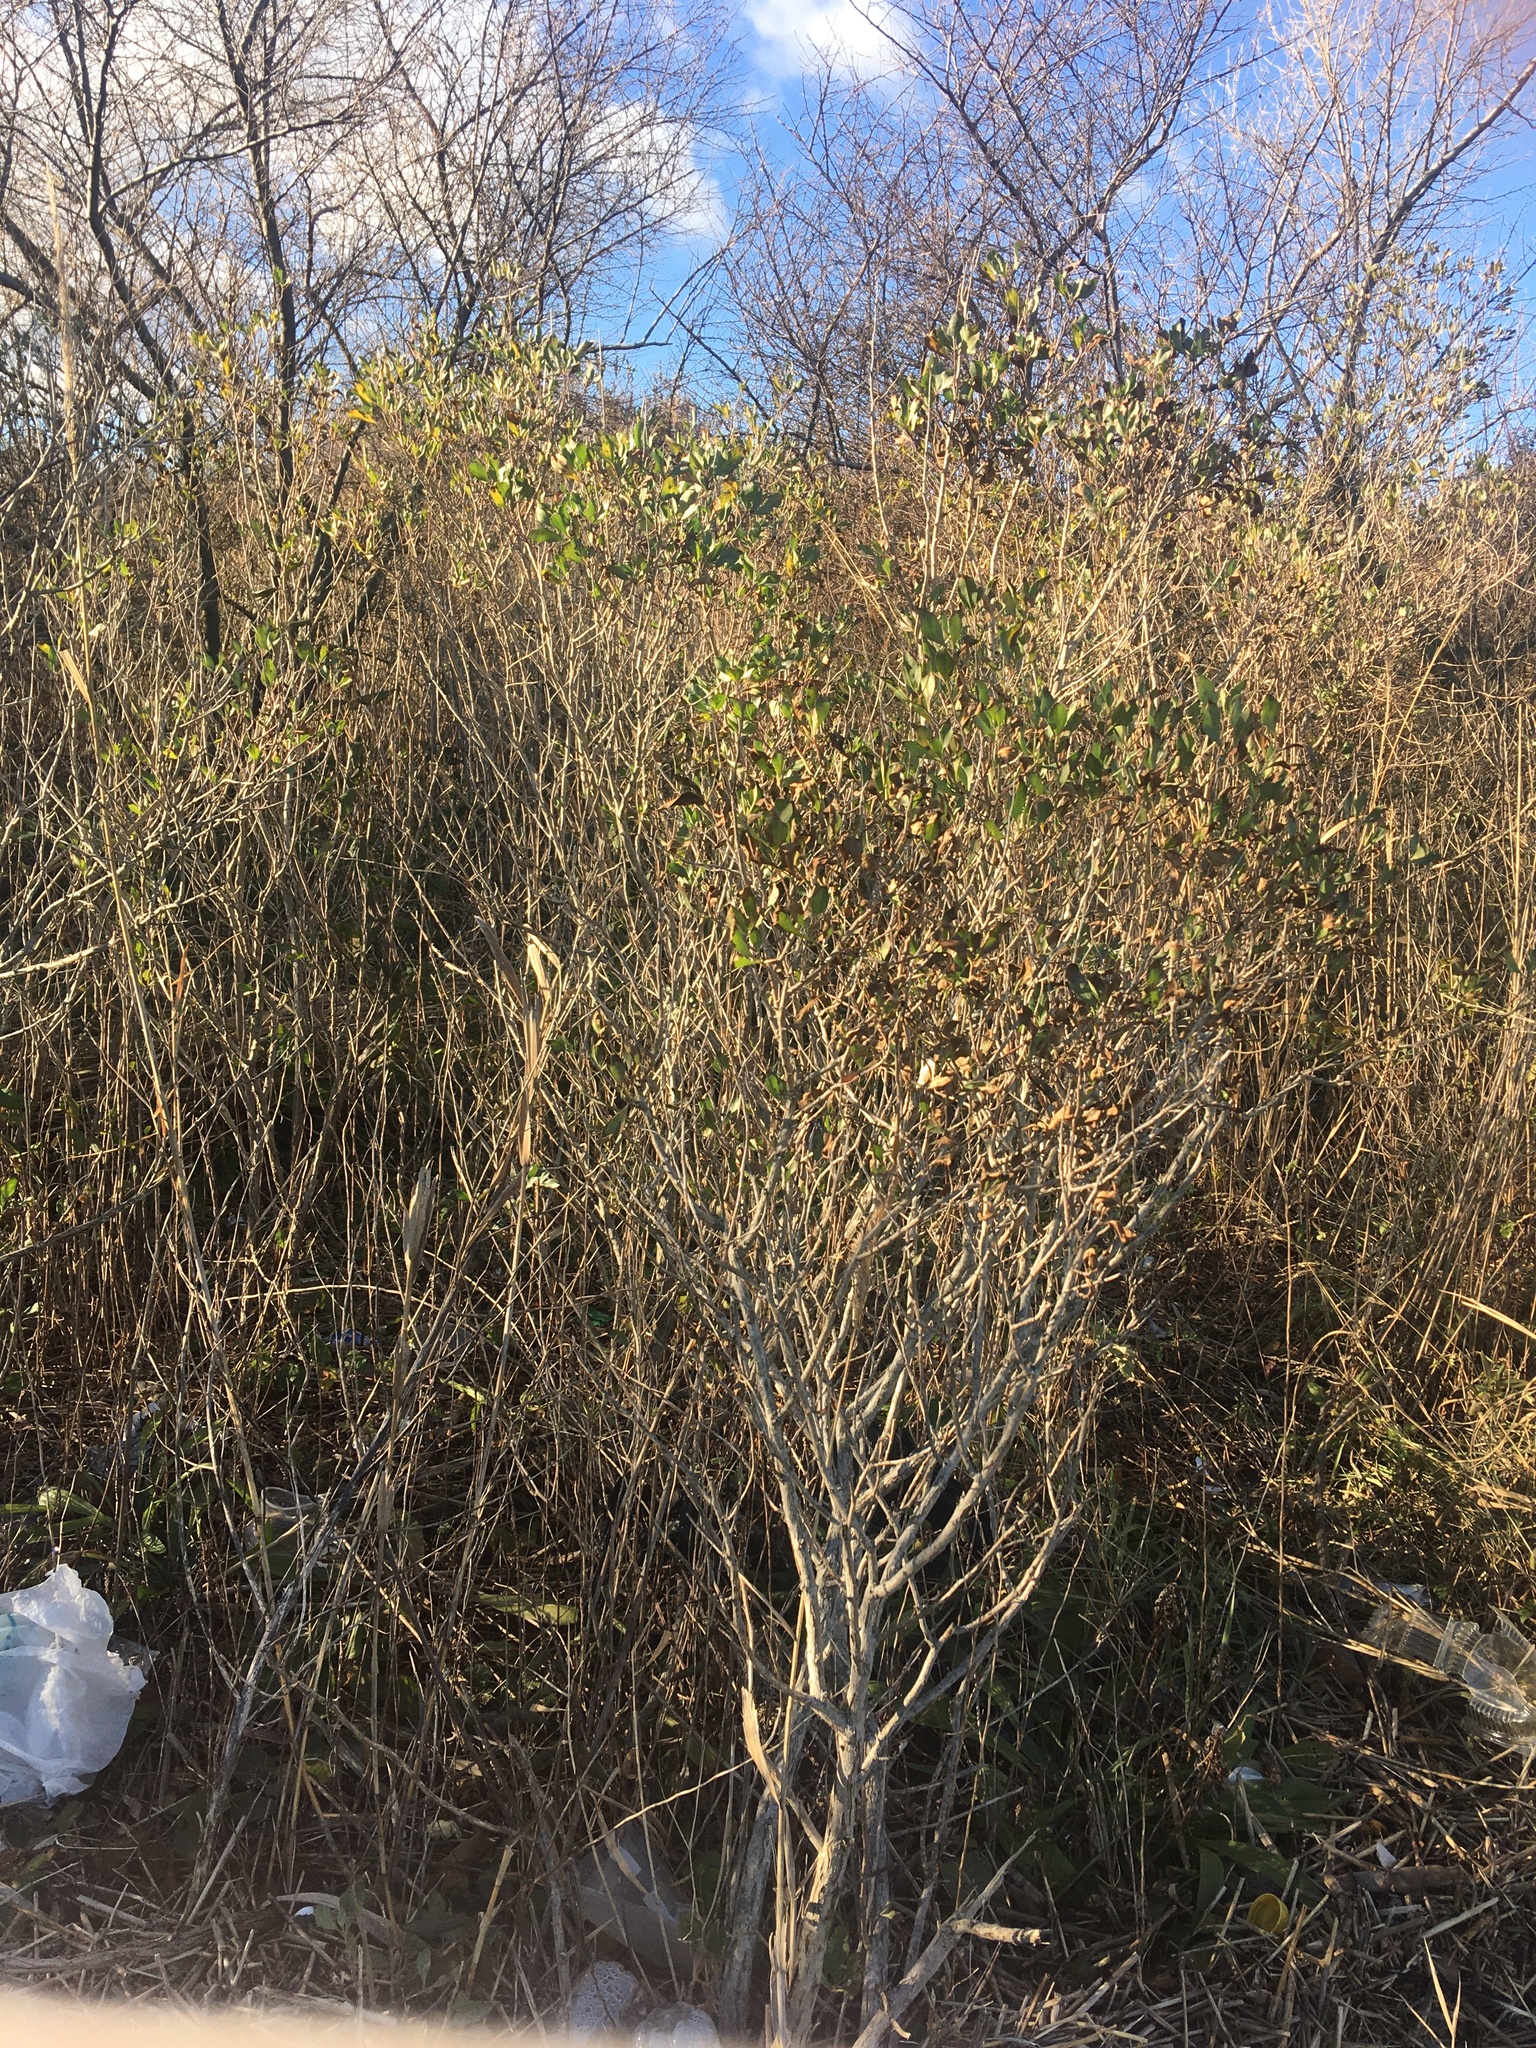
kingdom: Plantae
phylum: Tracheophyta
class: Magnoliopsida
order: Asterales
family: Asteraceae
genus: Baccharis
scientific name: Baccharis halimifolia
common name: Eastern baccharis
